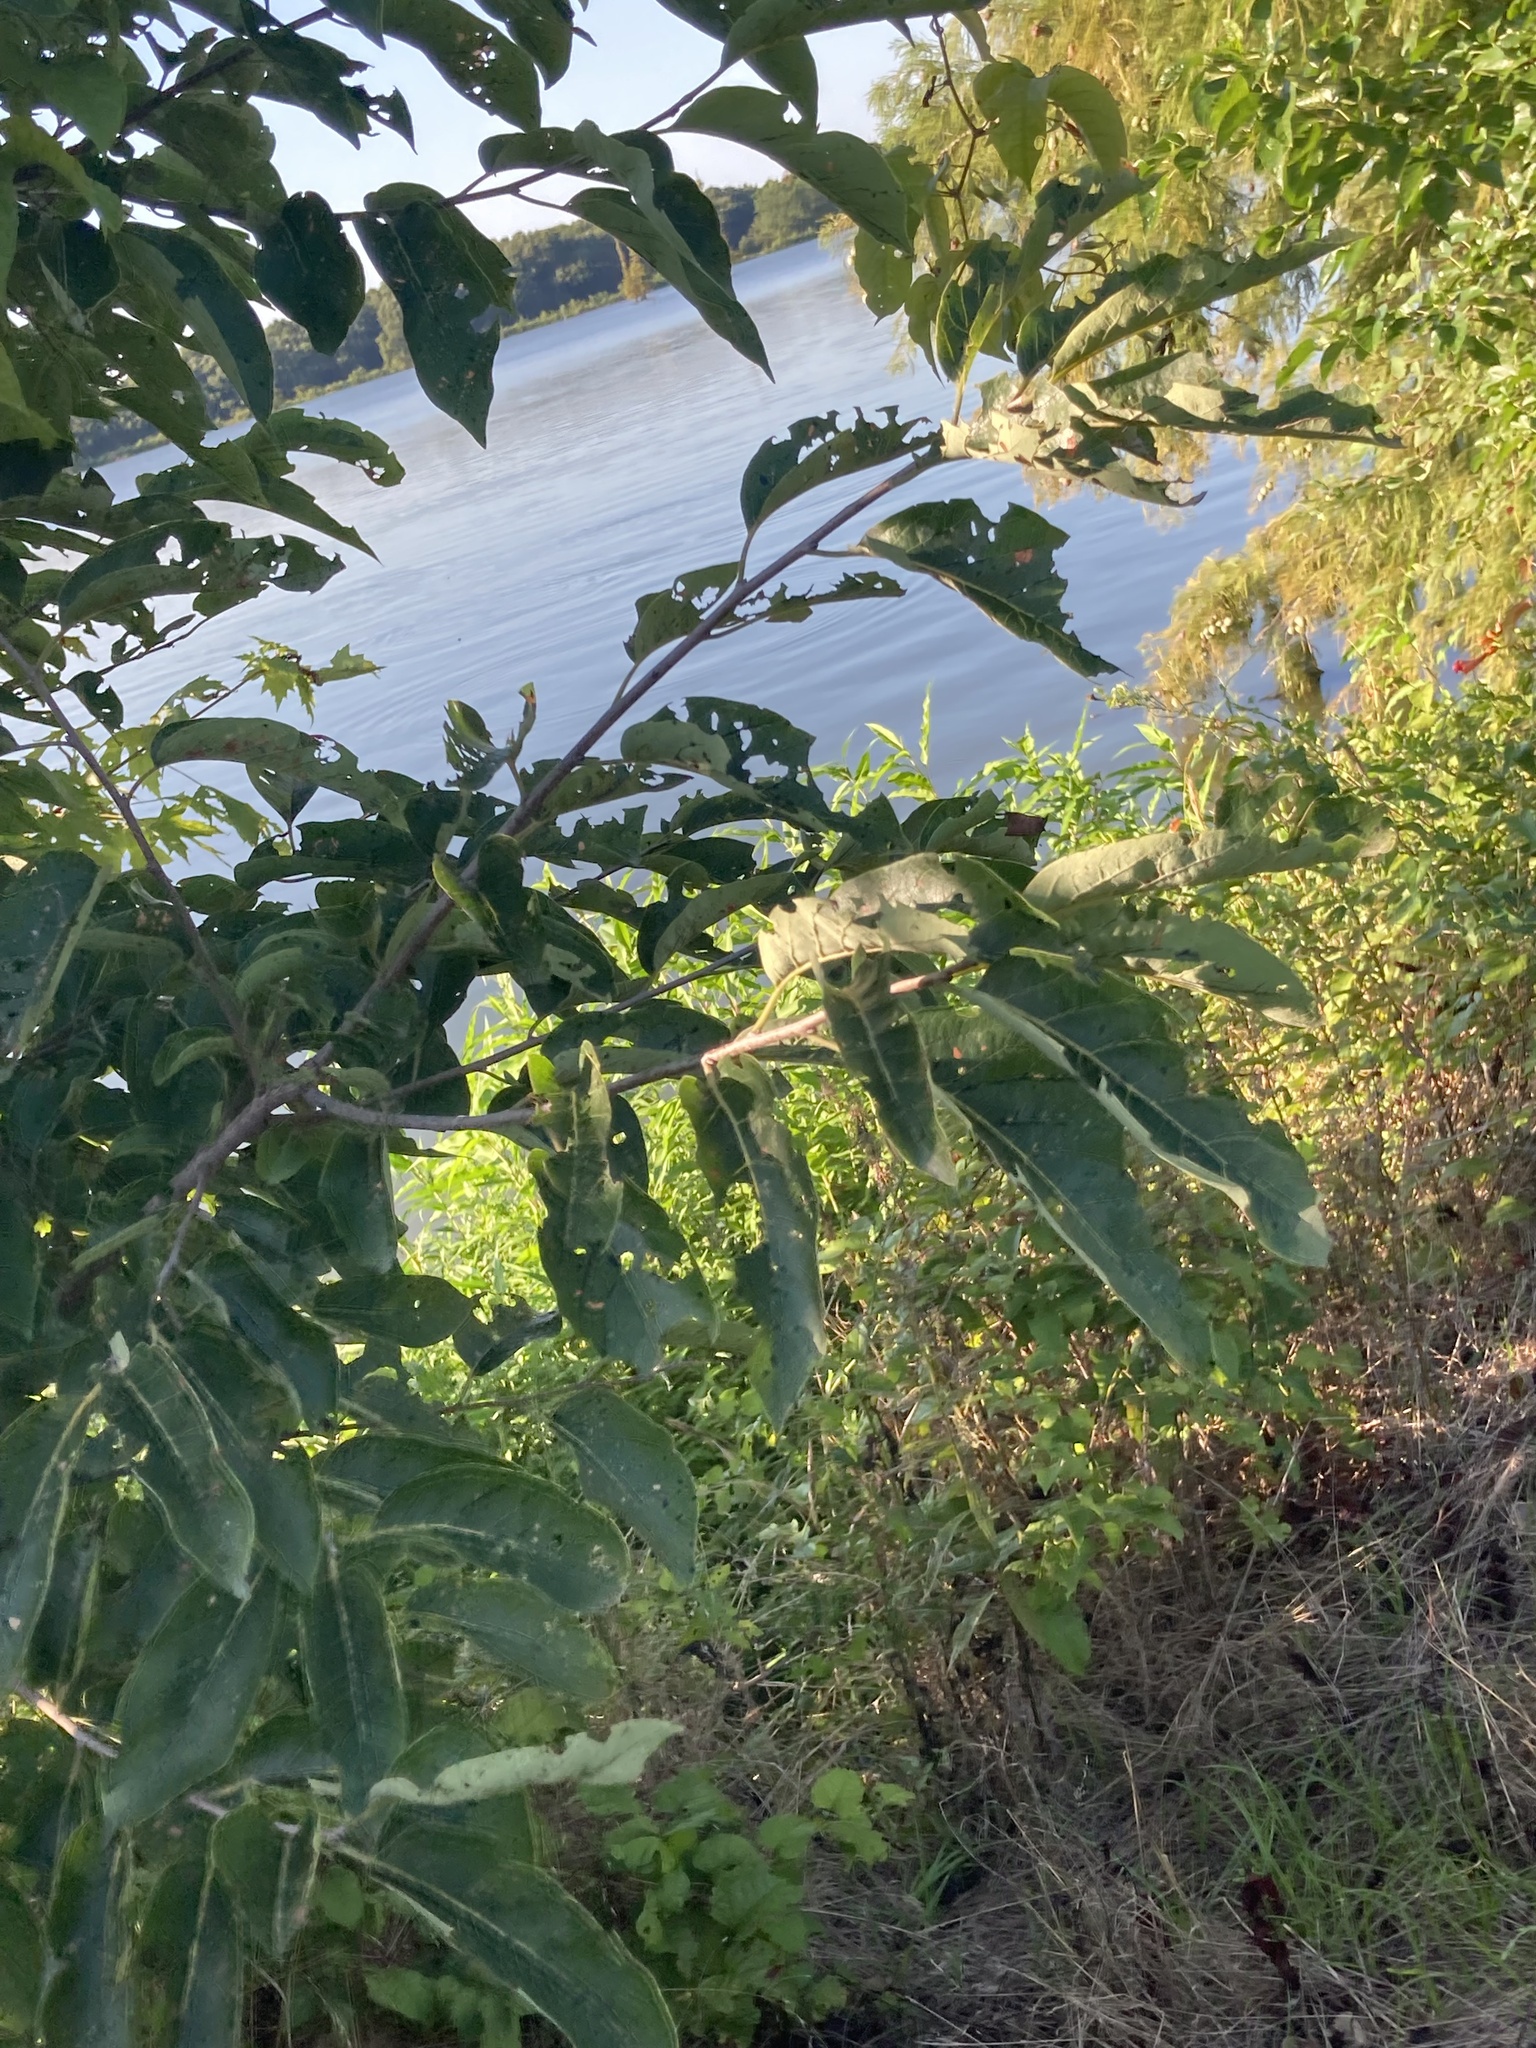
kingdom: Plantae
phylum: Tracheophyta
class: Magnoliopsida
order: Ericales
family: Ebenaceae
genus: Diospyros
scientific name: Diospyros virginiana
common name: Persimmon
